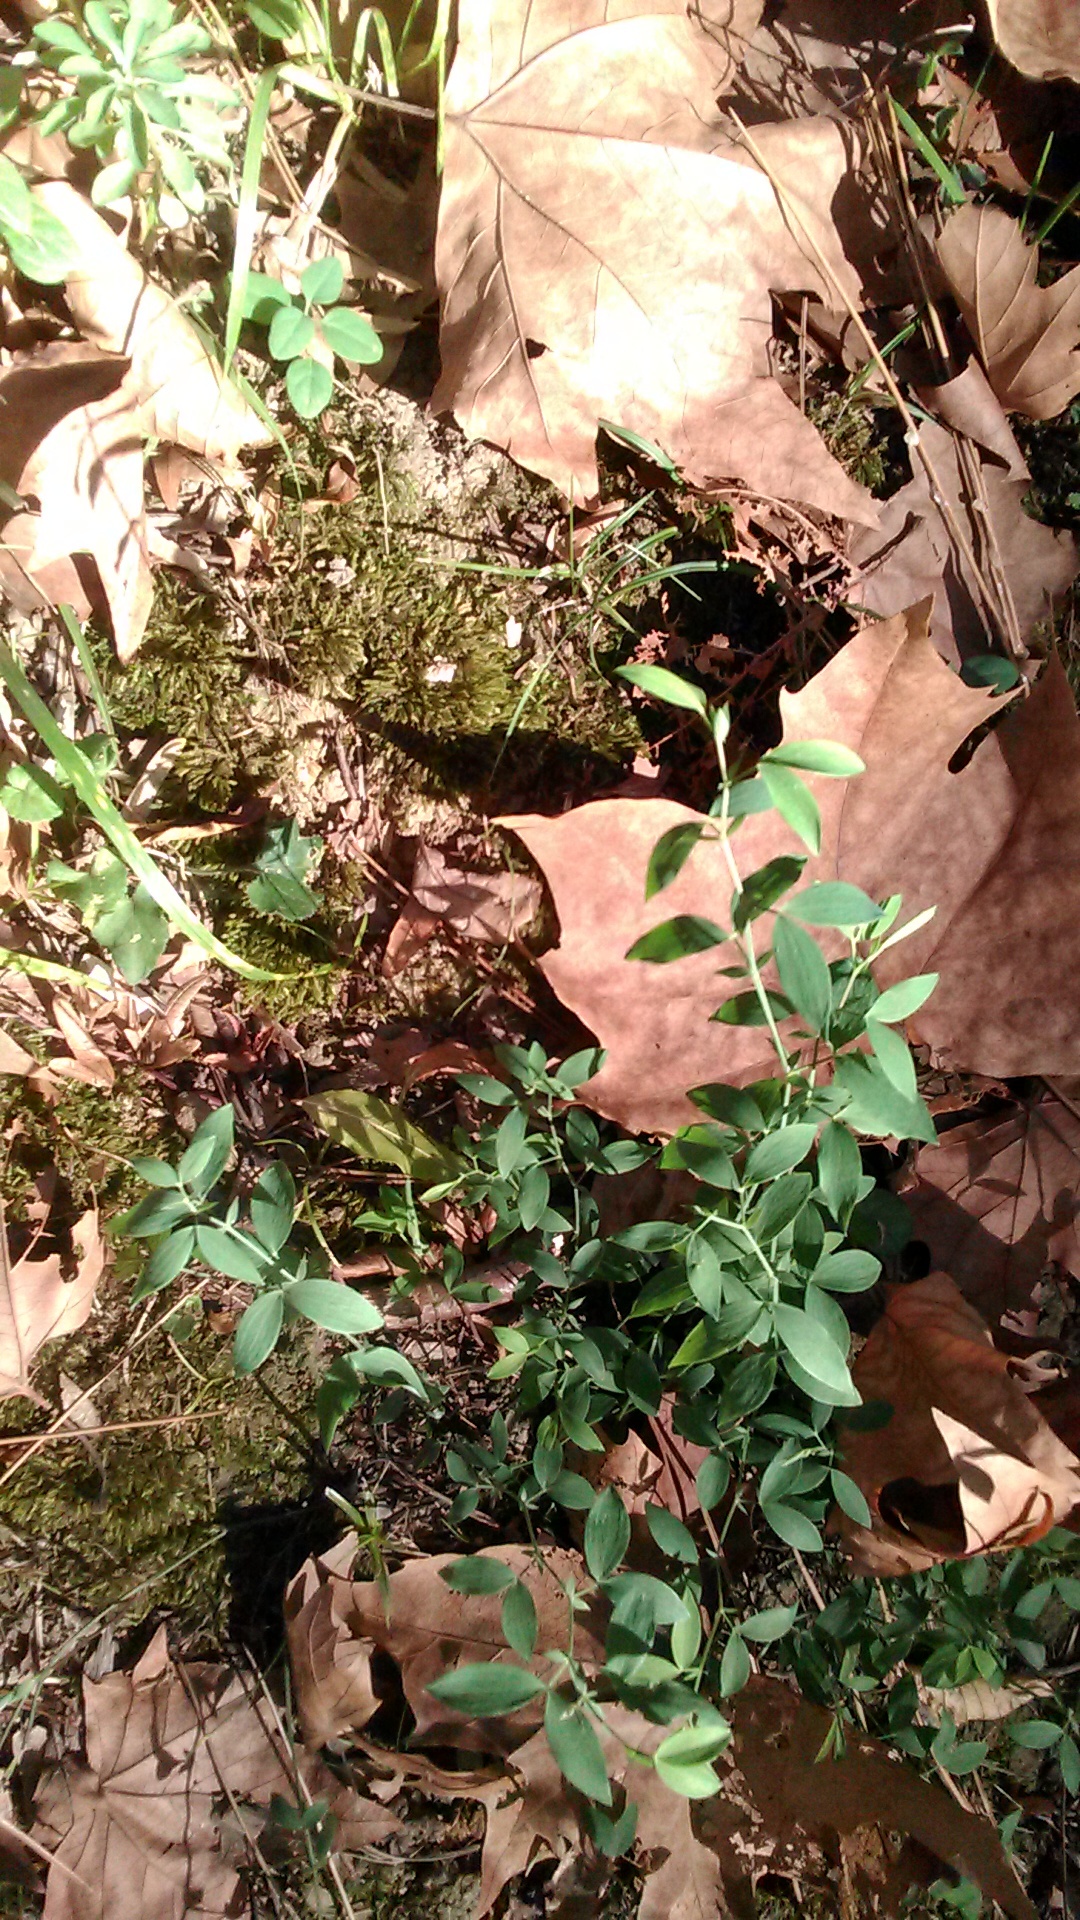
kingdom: Plantae
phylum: Tracheophyta
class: Magnoliopsida
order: Fabales
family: Fabaceae
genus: Lathyrus
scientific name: Lathyrus laxiflorus
